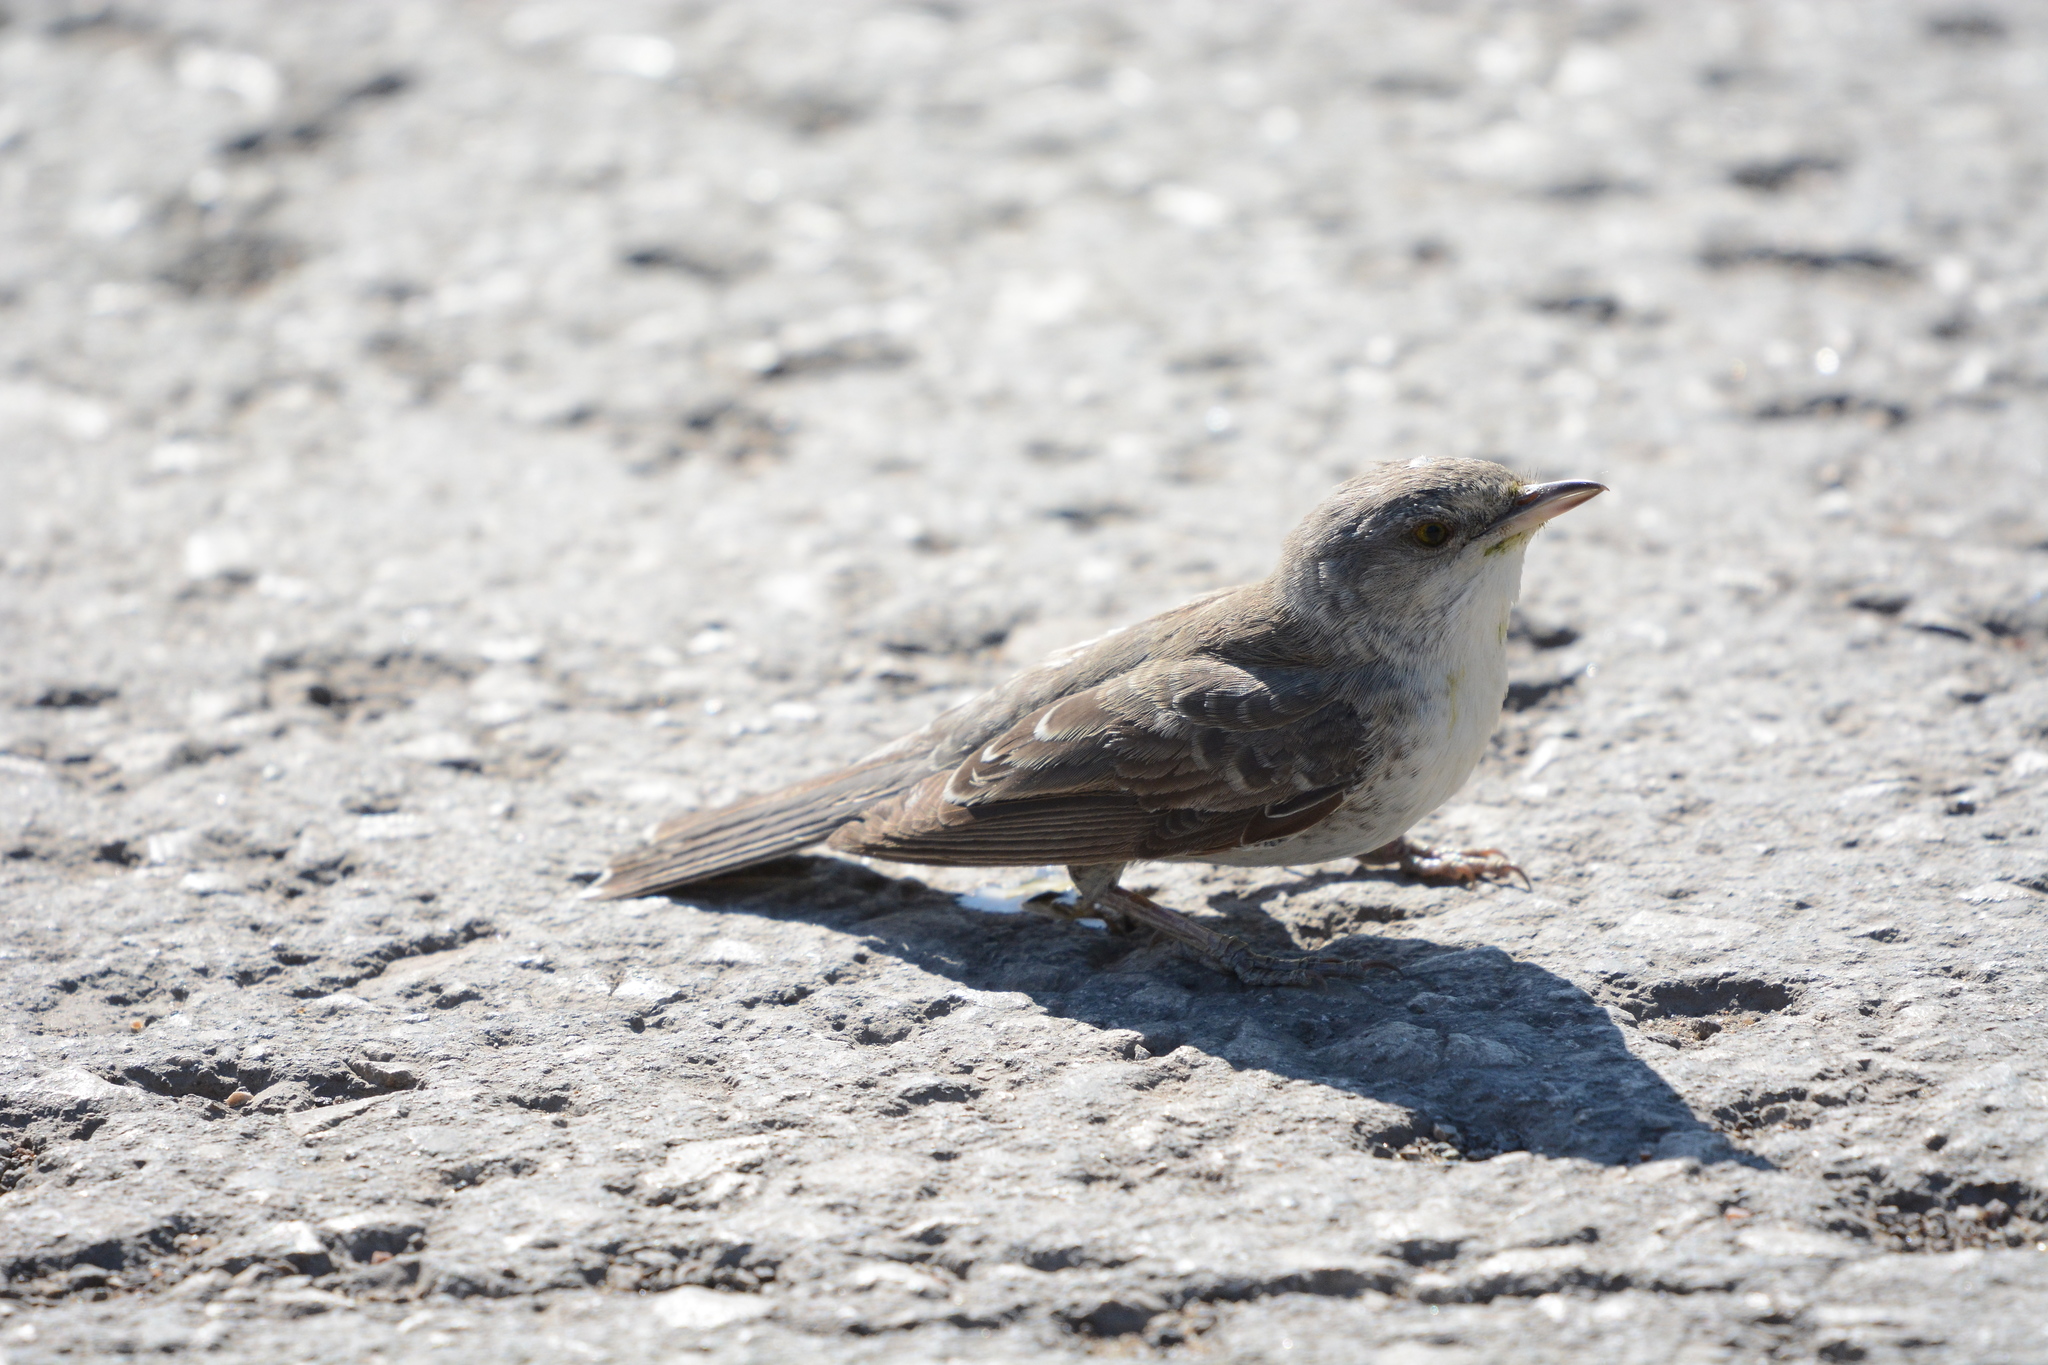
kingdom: Animalia
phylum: Chordata
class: Aves
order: Passeriformes
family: Sylviidae
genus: Sylvia
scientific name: Sylvia nisoria
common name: Barred warbler
